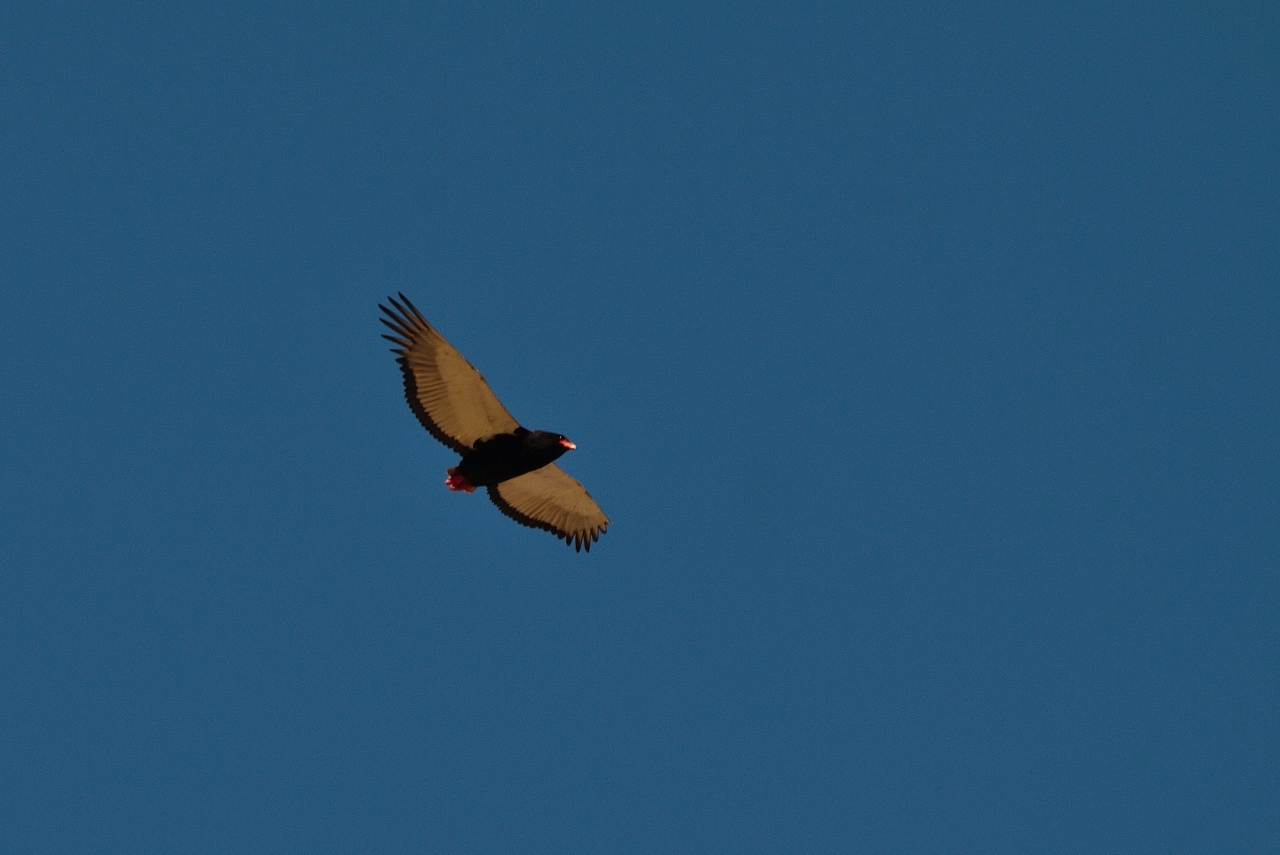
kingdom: Animalia
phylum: Chordata
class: Aves
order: Accipitriformes
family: Accipitridae
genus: Terathopius
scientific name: Terathopius ecaudatus
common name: Bateleur
